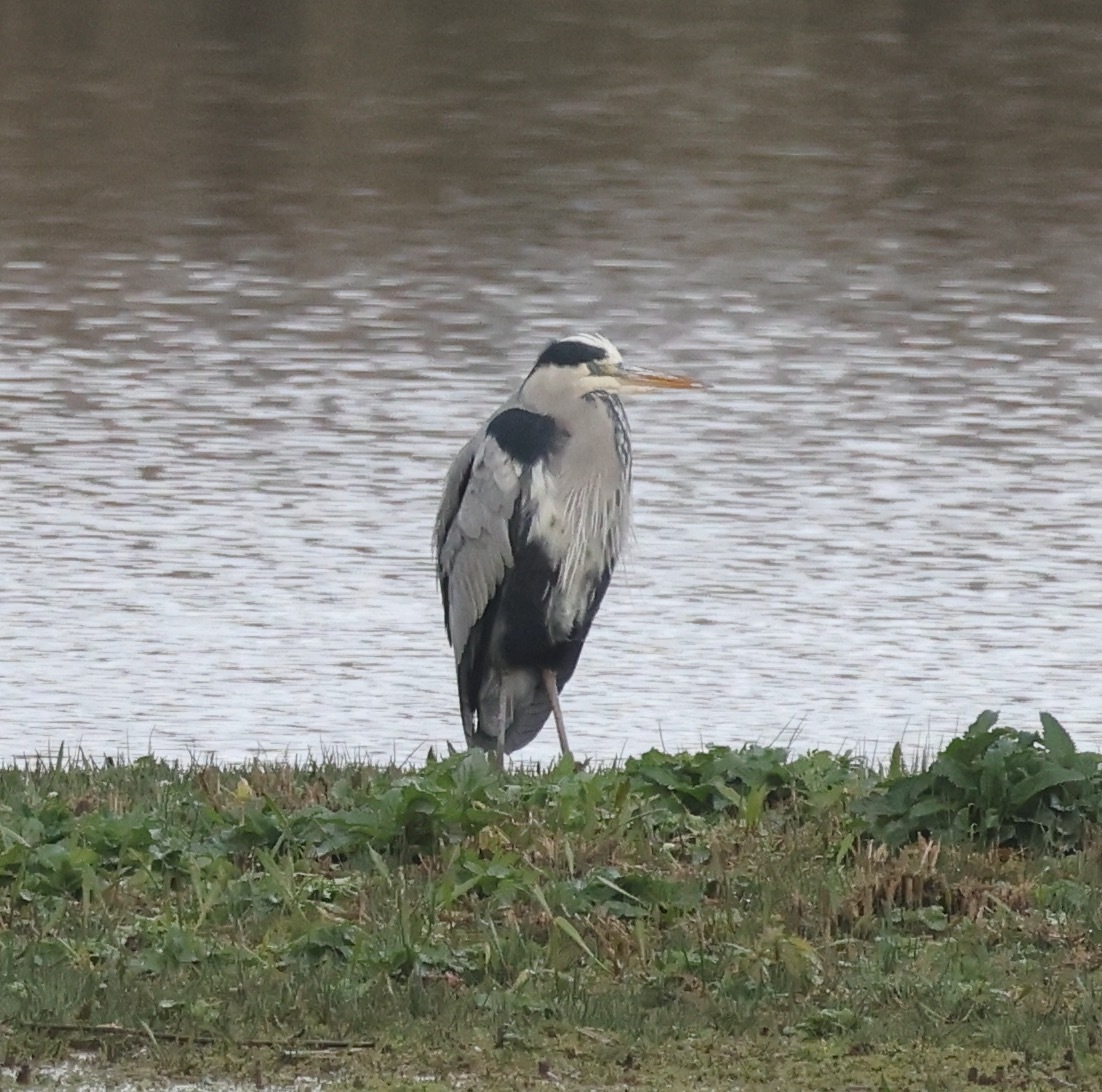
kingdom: Animalia
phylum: Chordata
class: Aves
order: Pelecaniformes
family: Ardeidae
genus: Ardea
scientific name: Ardea cinerea
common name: Grey heron
